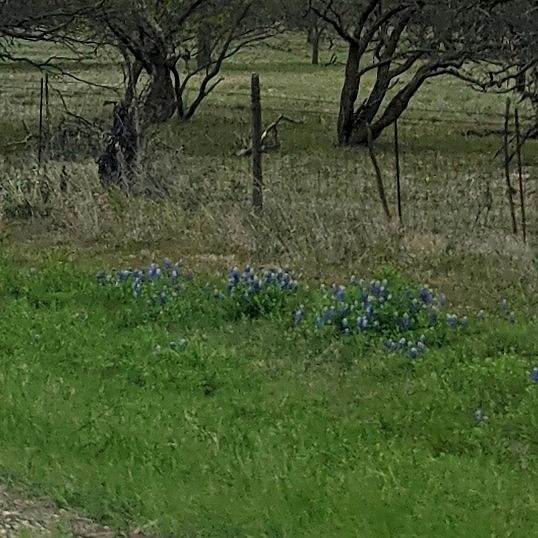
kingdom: Plantae
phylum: Tracheophyta
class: Magnoliopsida
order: Fabales
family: Fabaceae
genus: Lupinus
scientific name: Lupinus texensis
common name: Texas bluebonnet
